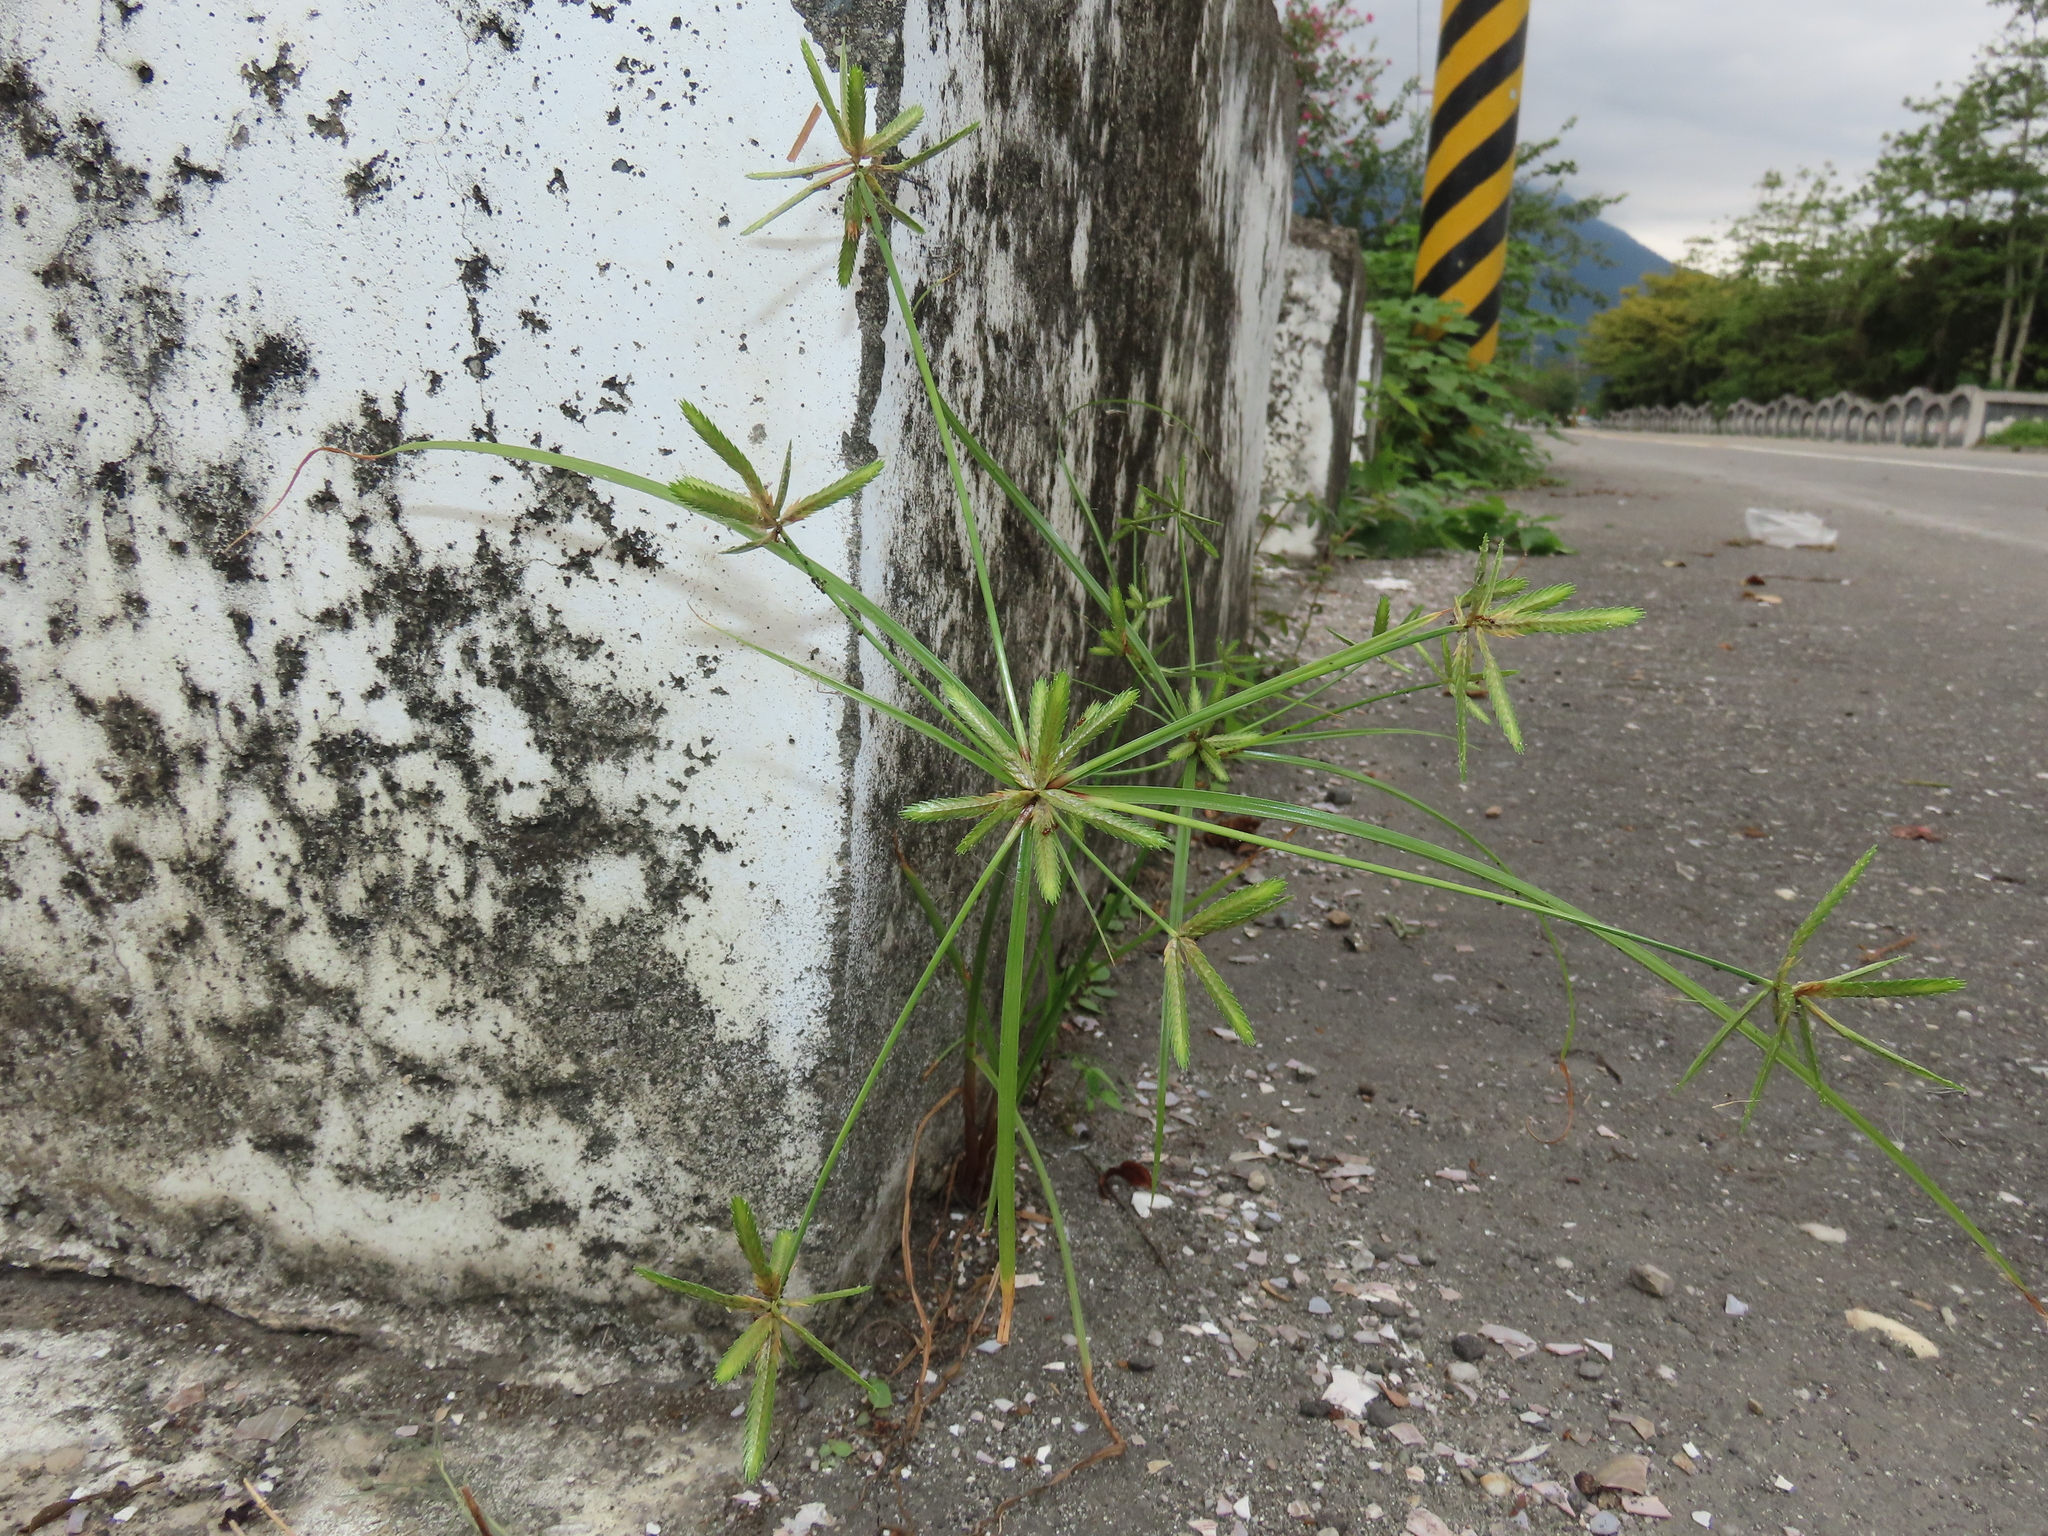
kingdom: Plantae
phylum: Tracheophyta
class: Liliopsida
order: Poales
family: Cyperaceae
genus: Cyperus
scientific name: Cyperus compressus
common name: Poorland flatsedge
